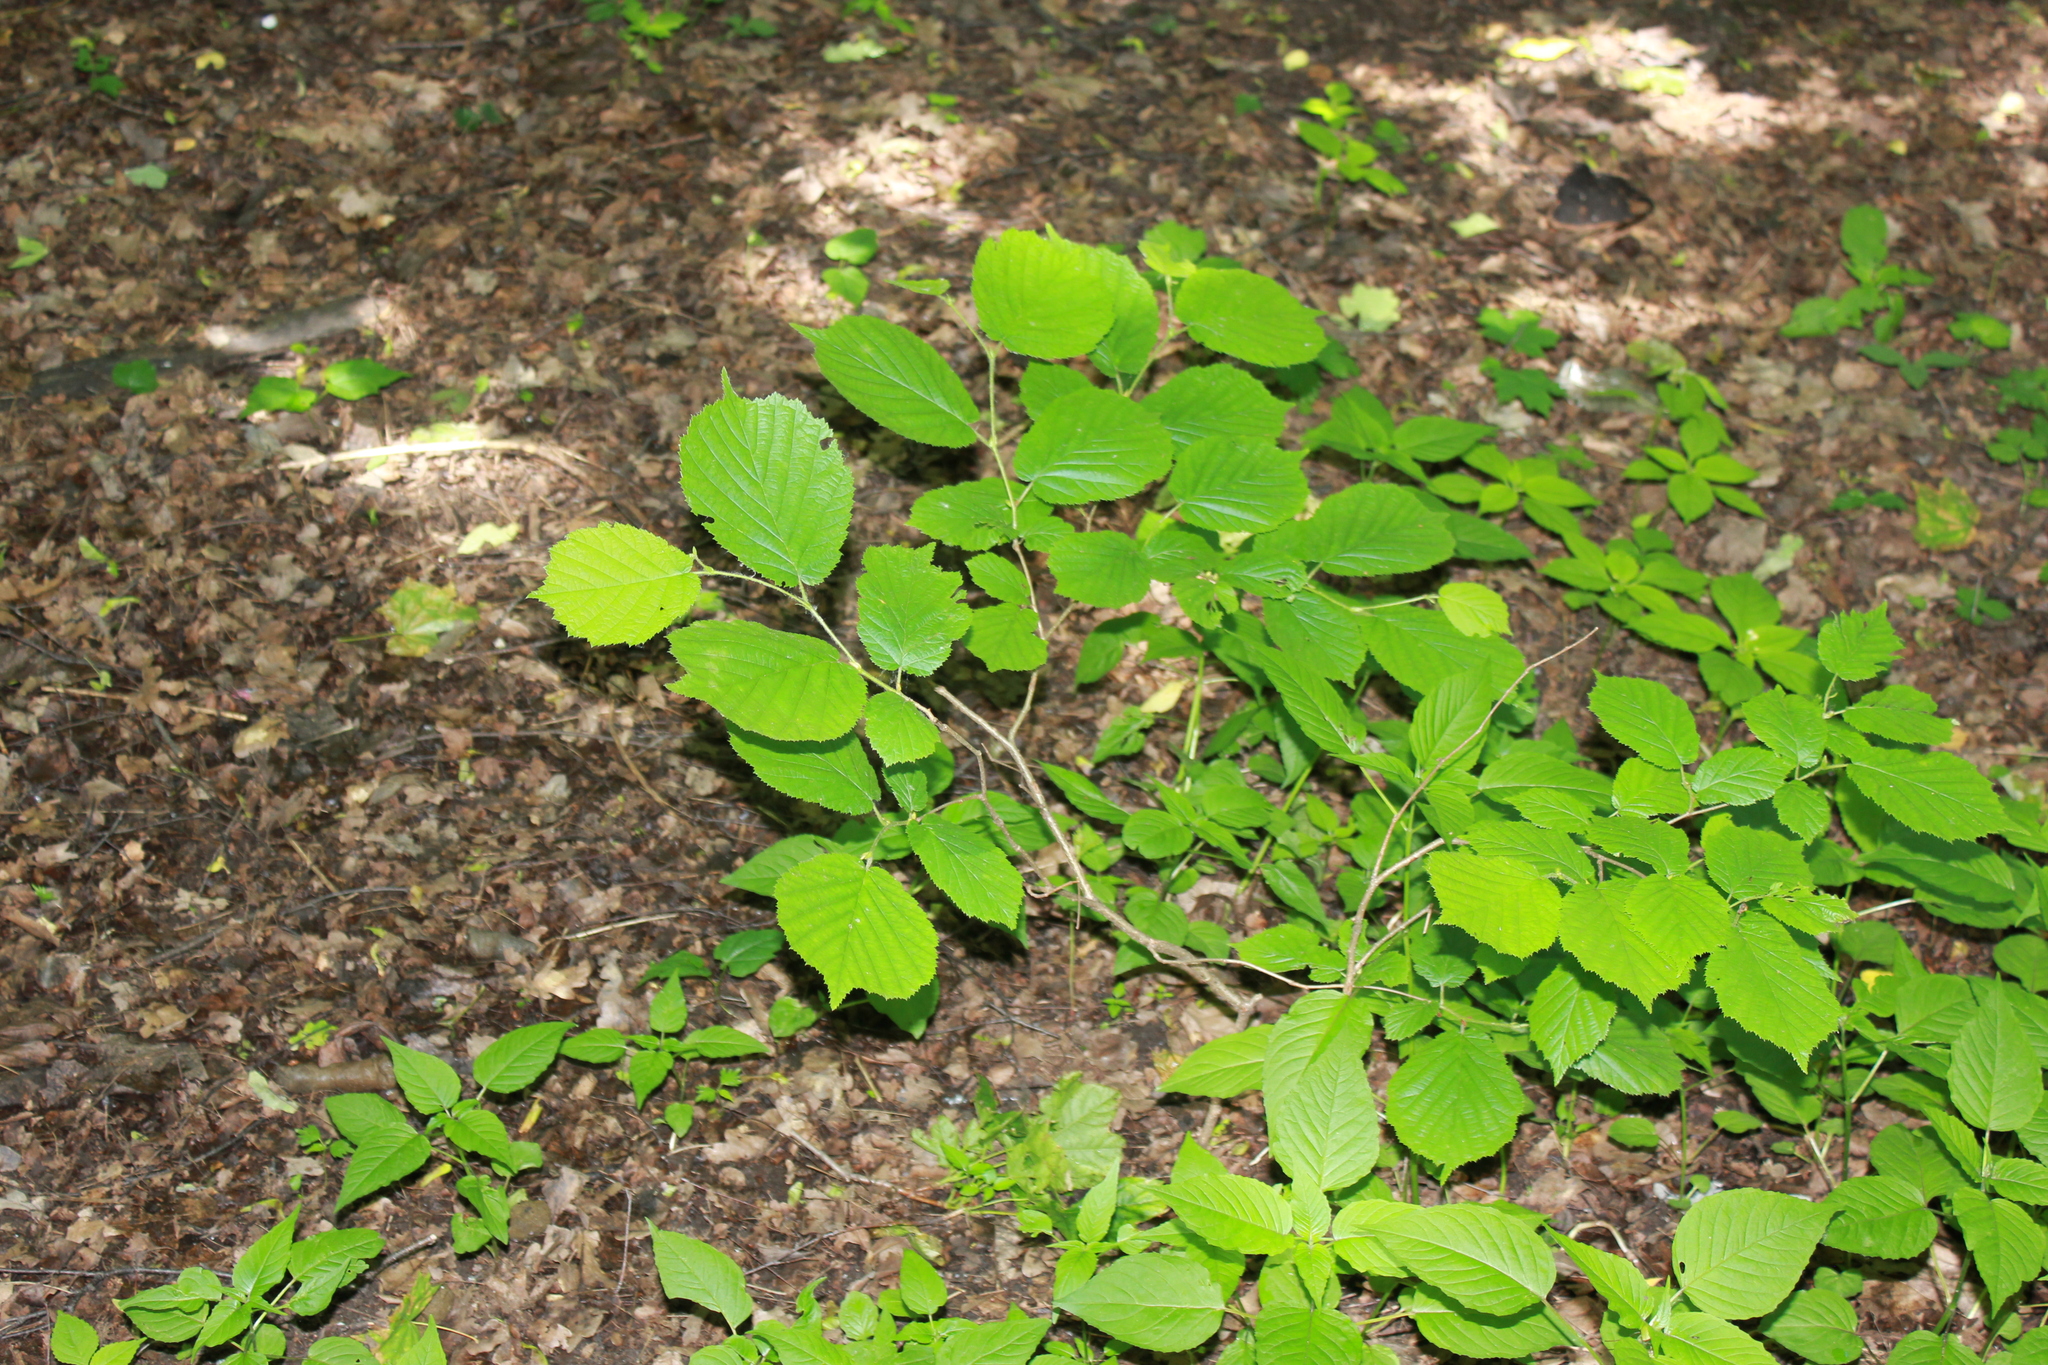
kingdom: Plantae
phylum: Tracheophyta
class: Magnoliopsida
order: Fagales
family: Betulaceae
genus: Corylus
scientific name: Corylus avellana
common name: European hazel
